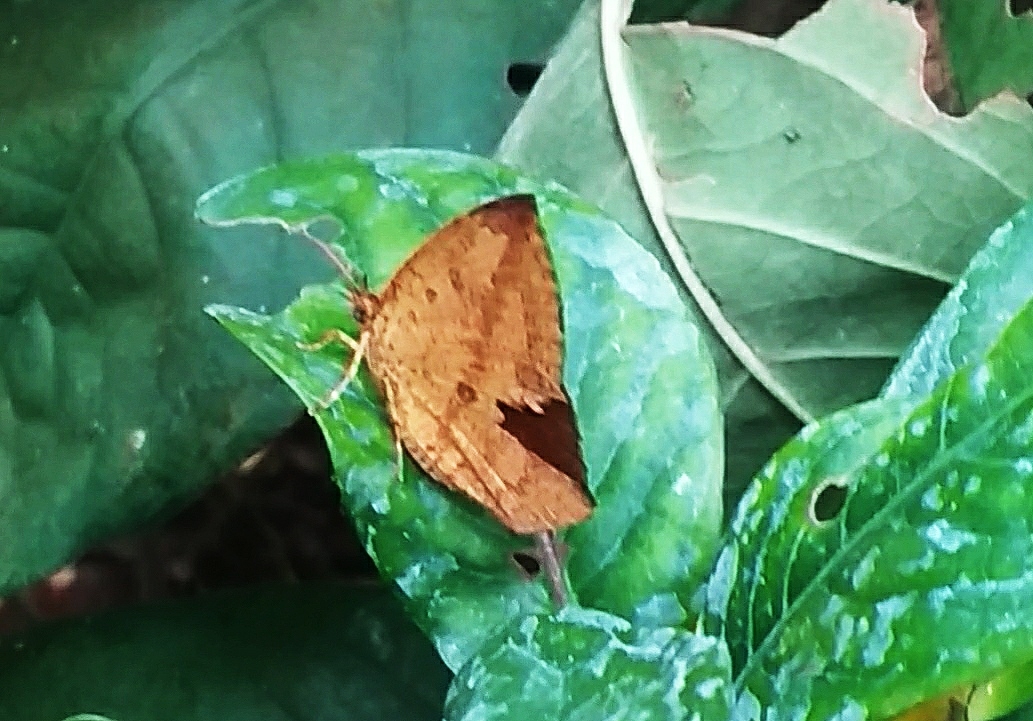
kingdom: Animalia
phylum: Arthropoda
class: Insecta
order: Lepidoptera
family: Callidulidae
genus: Tetragonus
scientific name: Tetragonus catamitus
